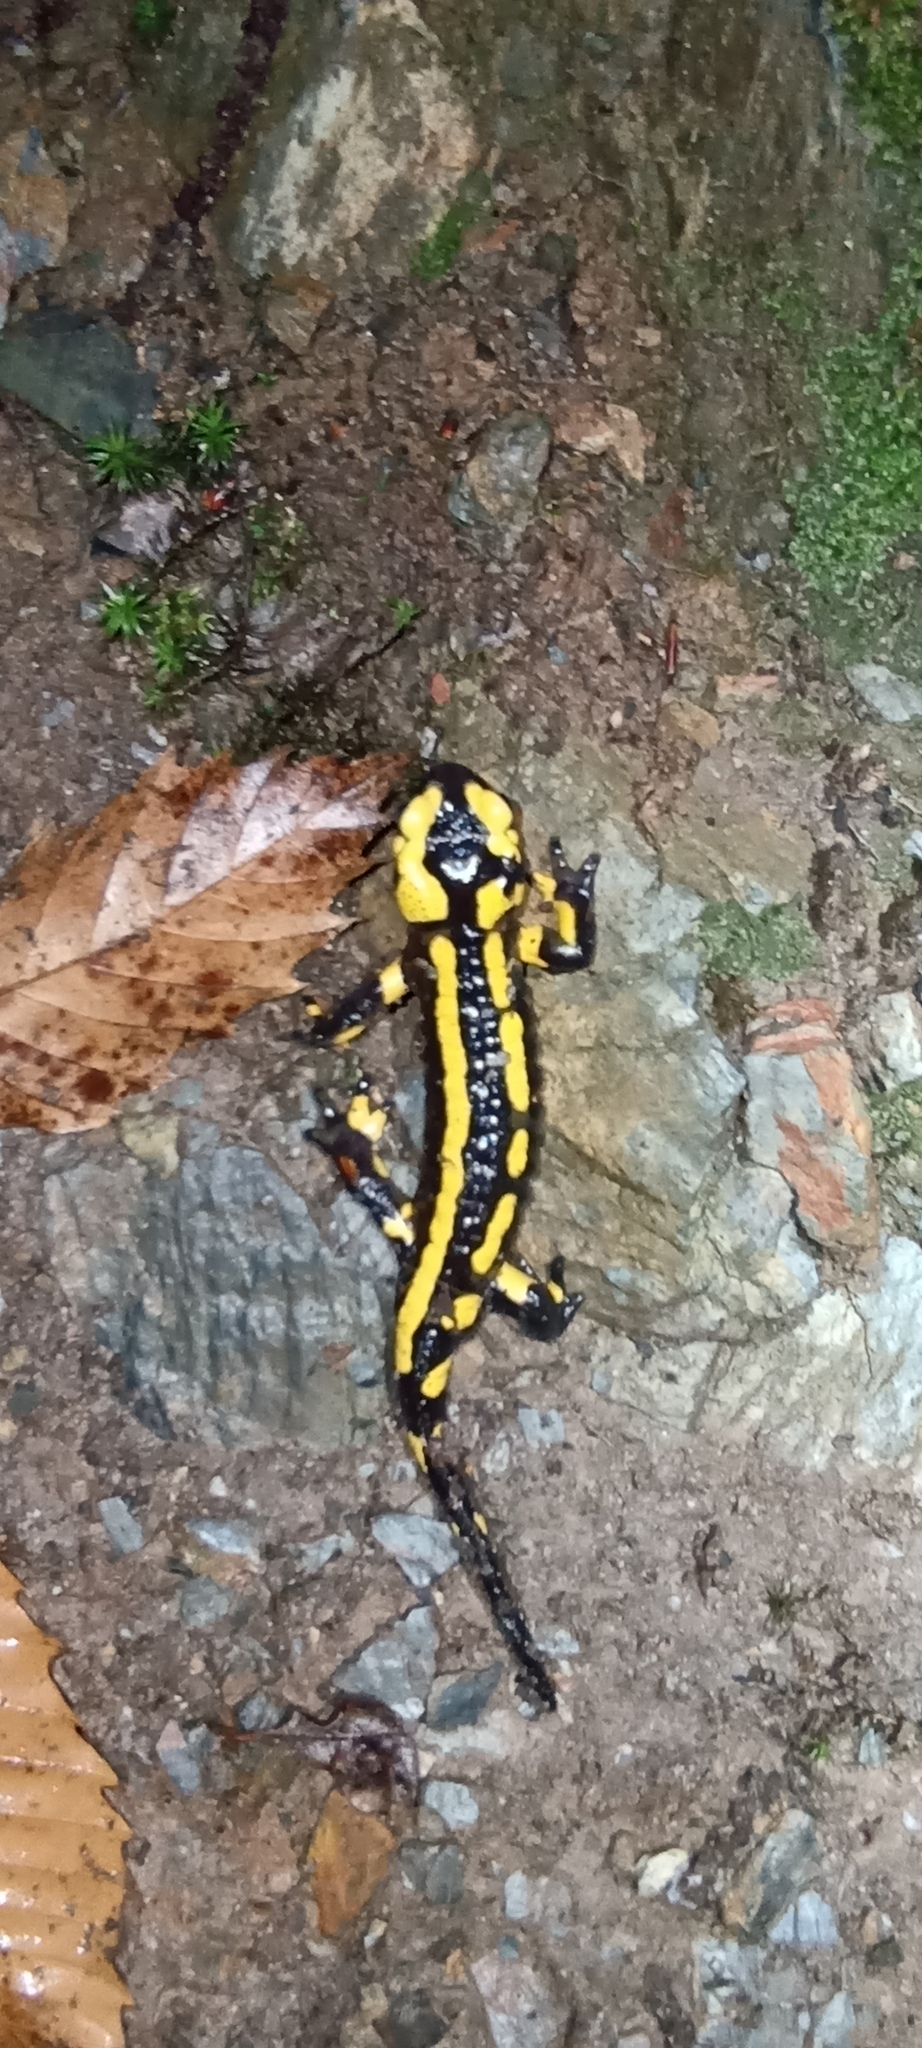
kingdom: Animalia
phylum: Chordata
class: Amphibia
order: Caudata
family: Salamandridae
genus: Salamandra
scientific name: Salamandra salamandra
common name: Fire salamander
